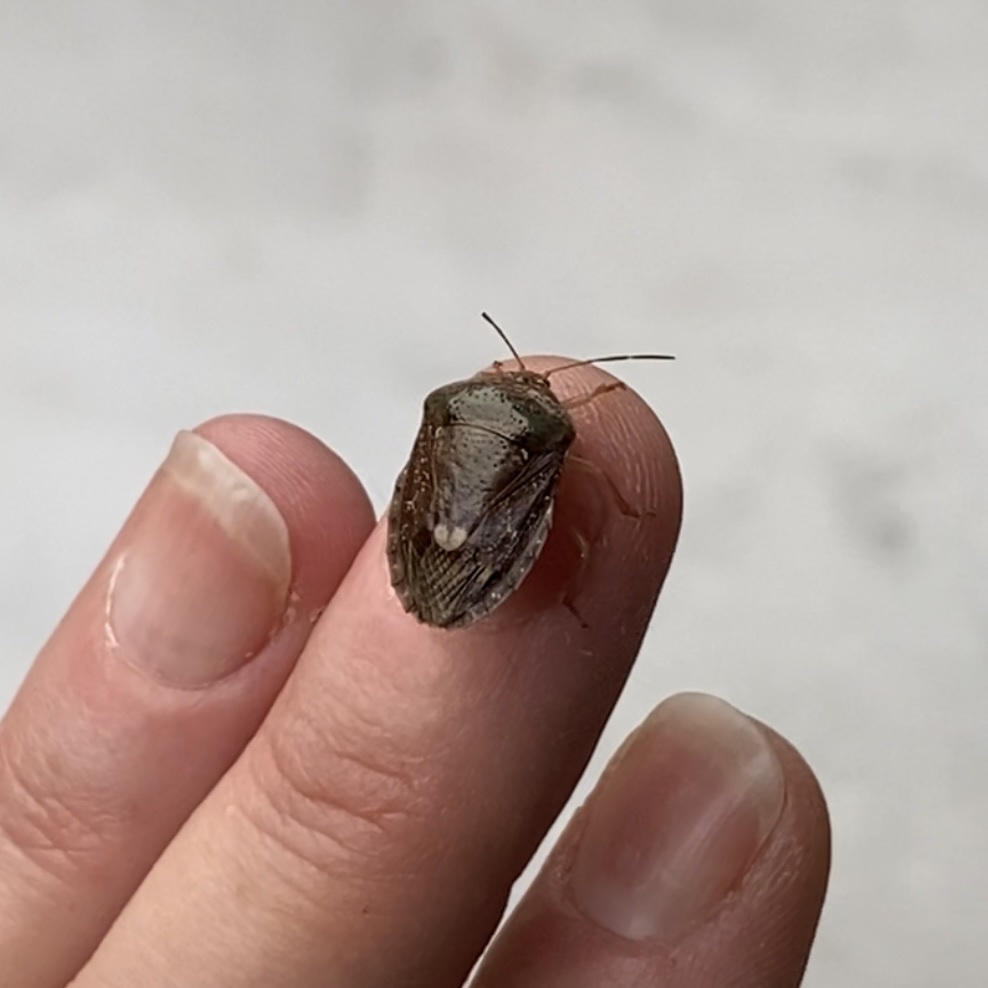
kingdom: Animalia
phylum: Arthropoda
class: Insecta
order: Hemiptera
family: Pentatomidae
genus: Edessa
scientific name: Edessa bifida
